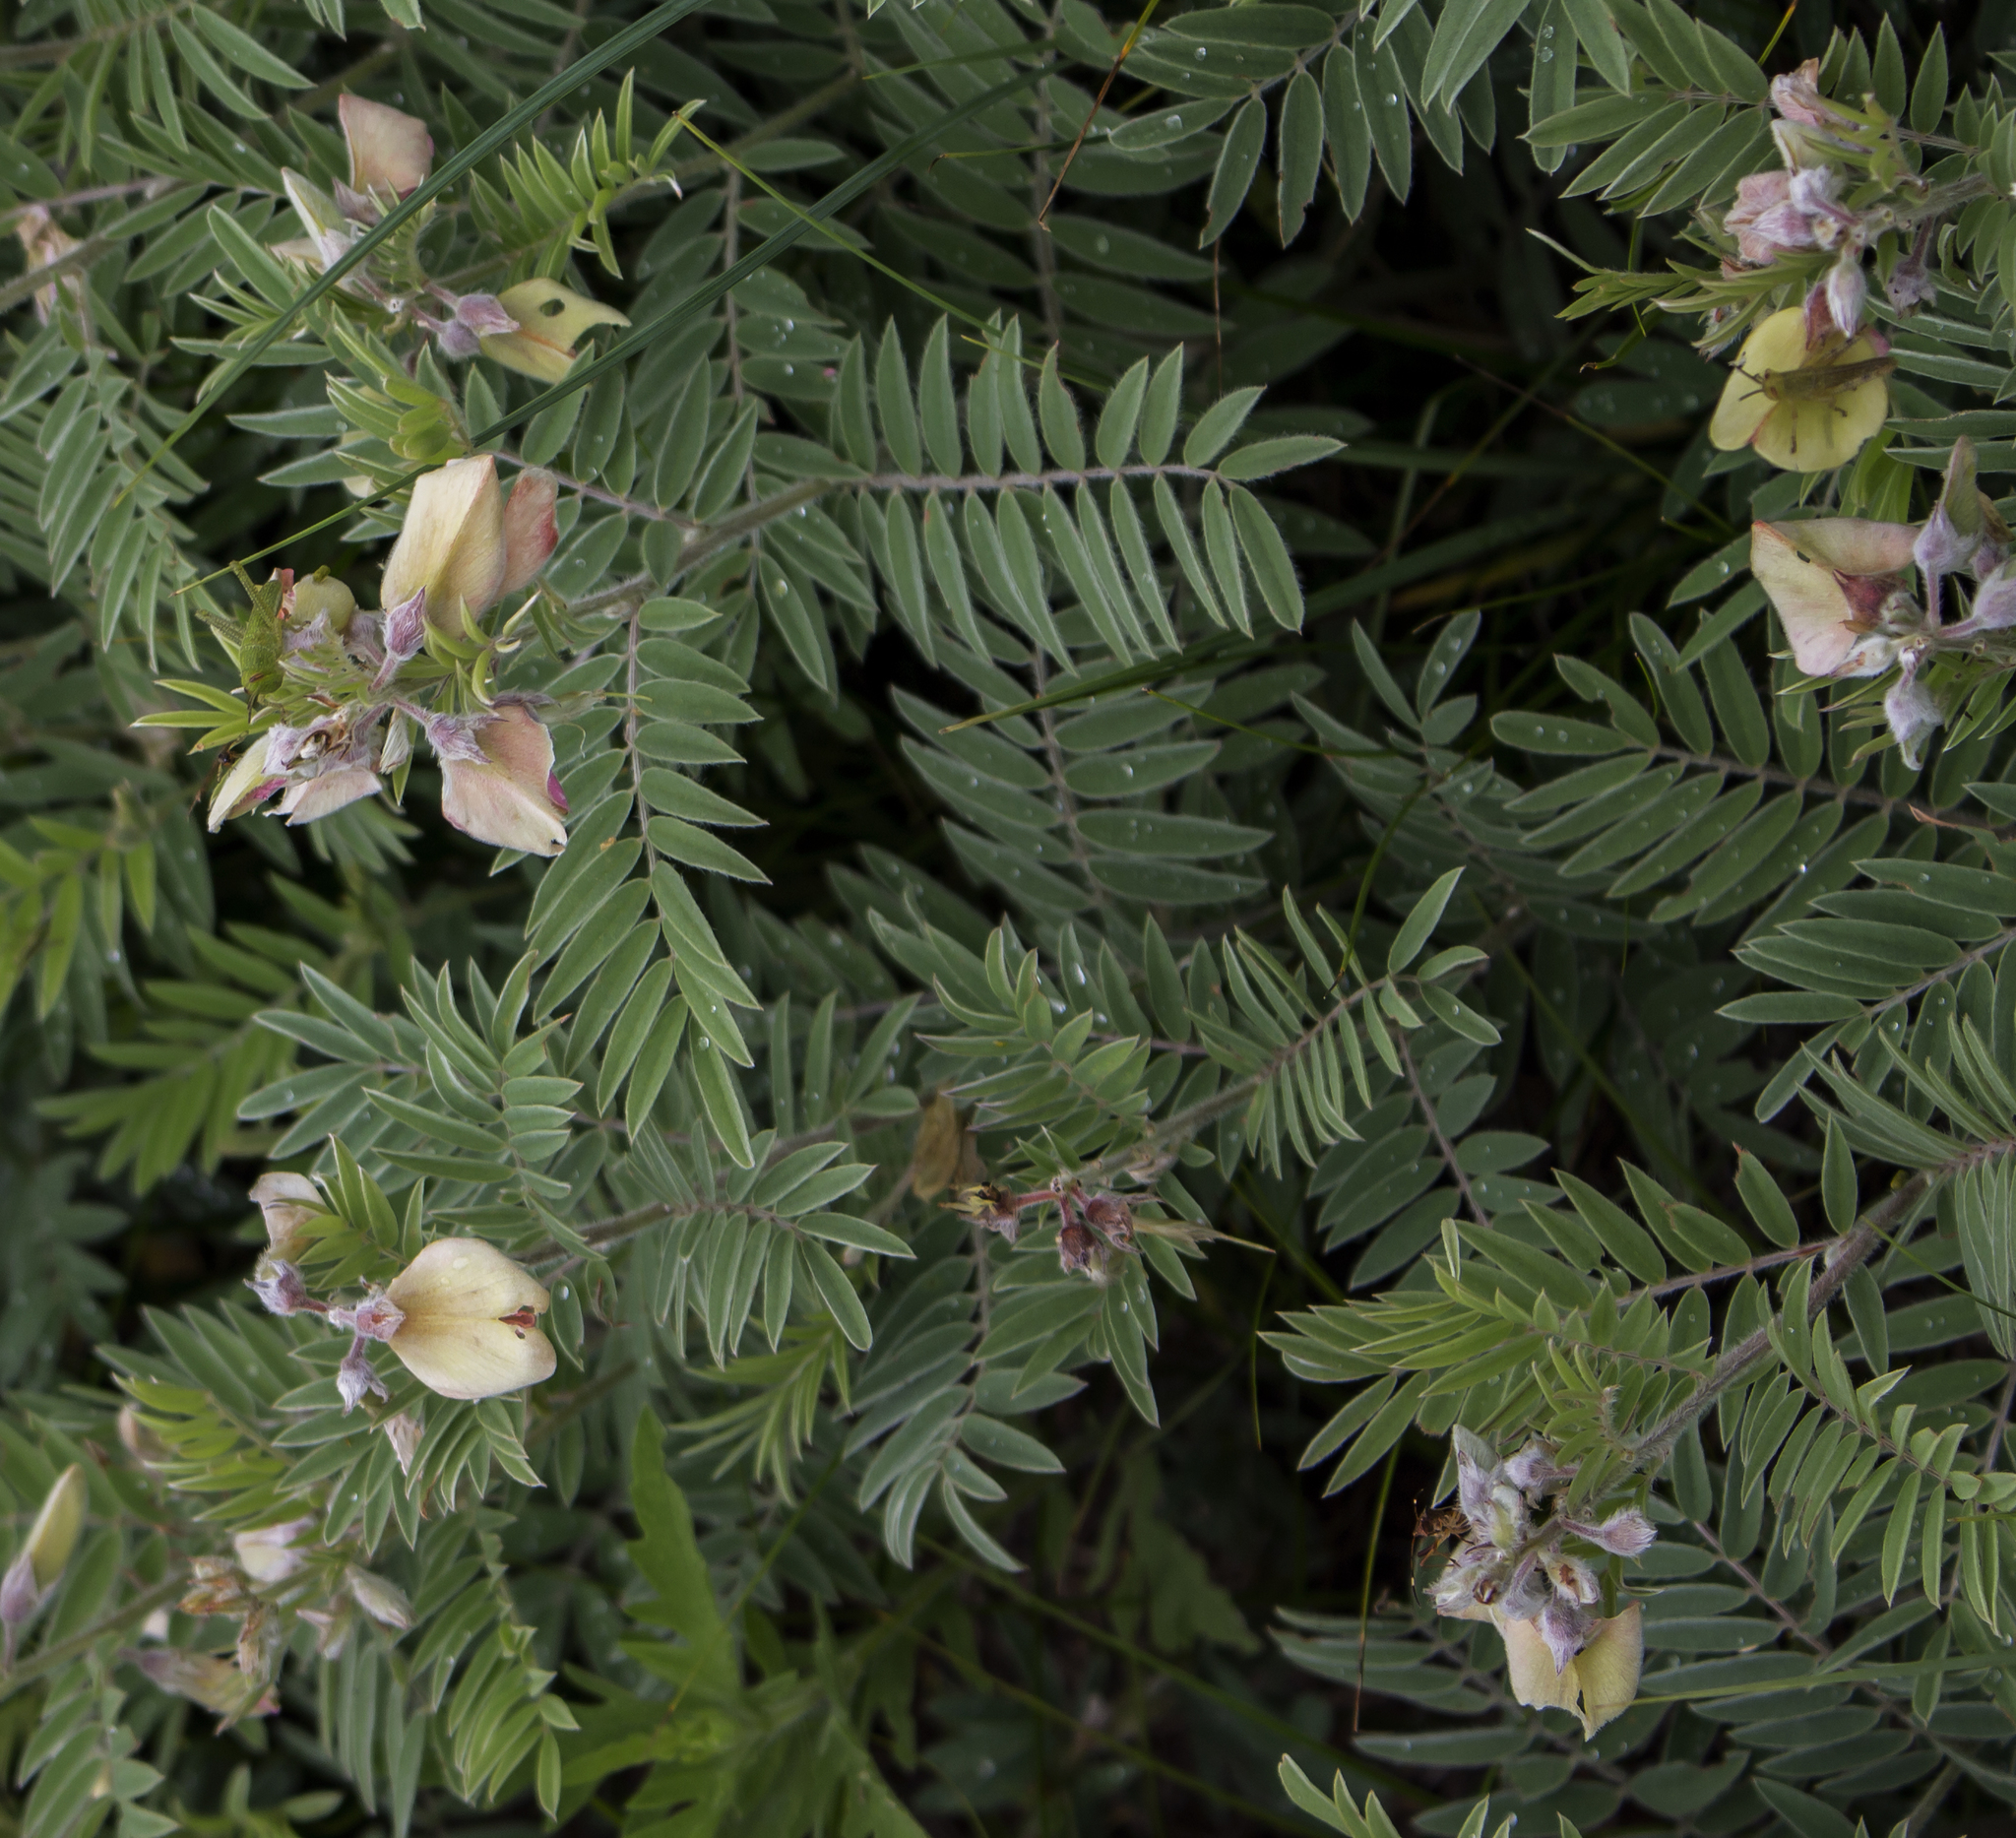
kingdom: Plantae
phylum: Tracheophyta
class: Magnoliopsida
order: Fabales
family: Fabaceae
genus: Tephrosia
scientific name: Tephrosia virginiana
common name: Rabbit-pea
